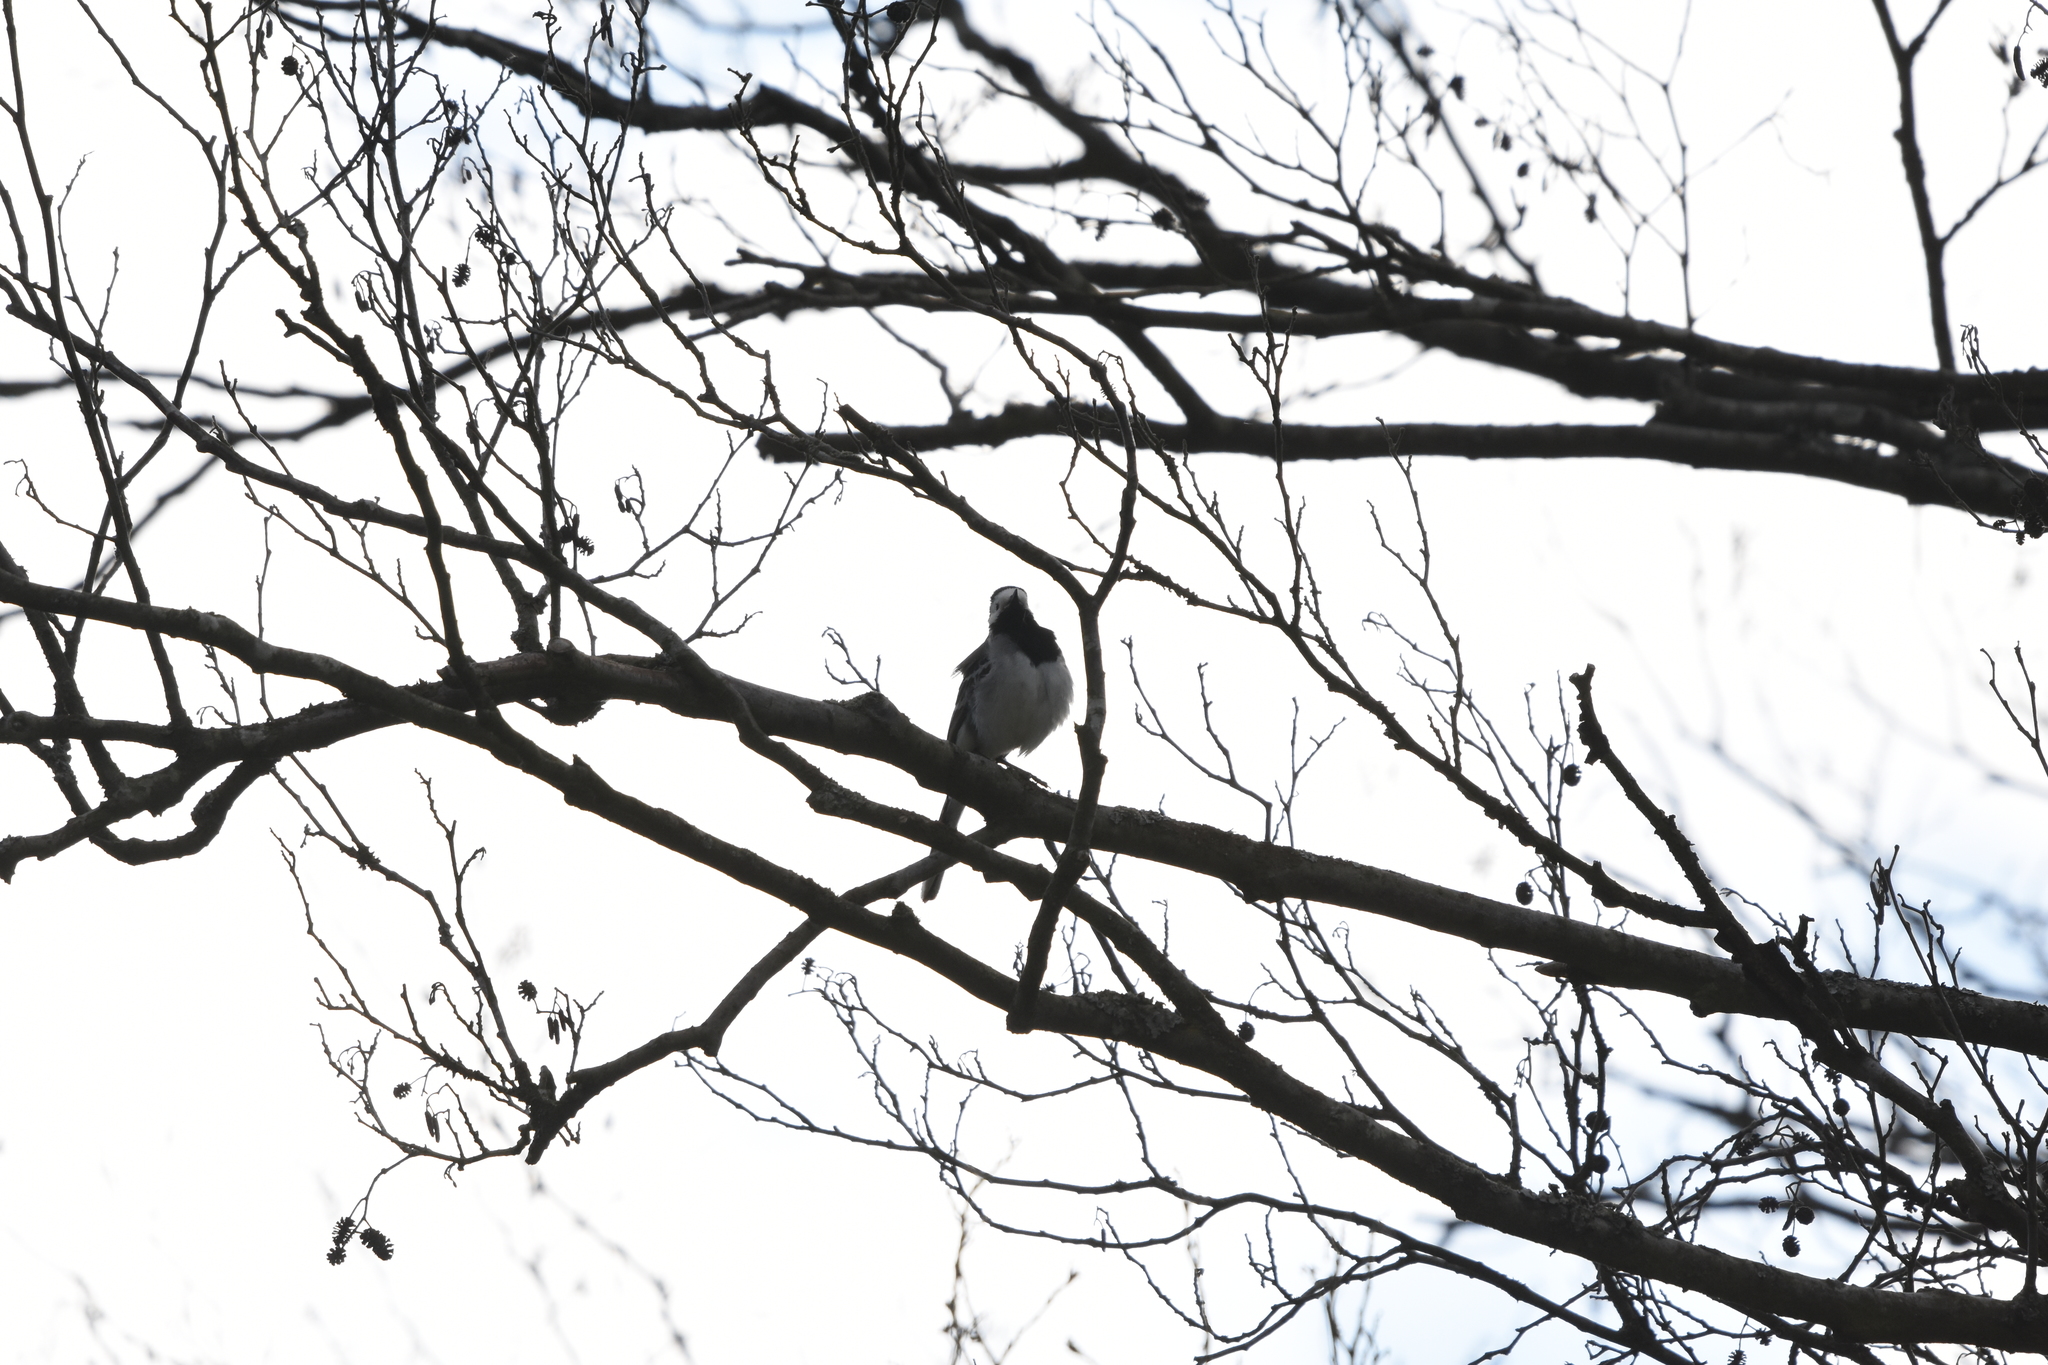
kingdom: Animalia
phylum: Chordata
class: Aves
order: Passeriformes
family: Motacillidae
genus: Motacilla
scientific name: Motacilla alba
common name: White wagtail
